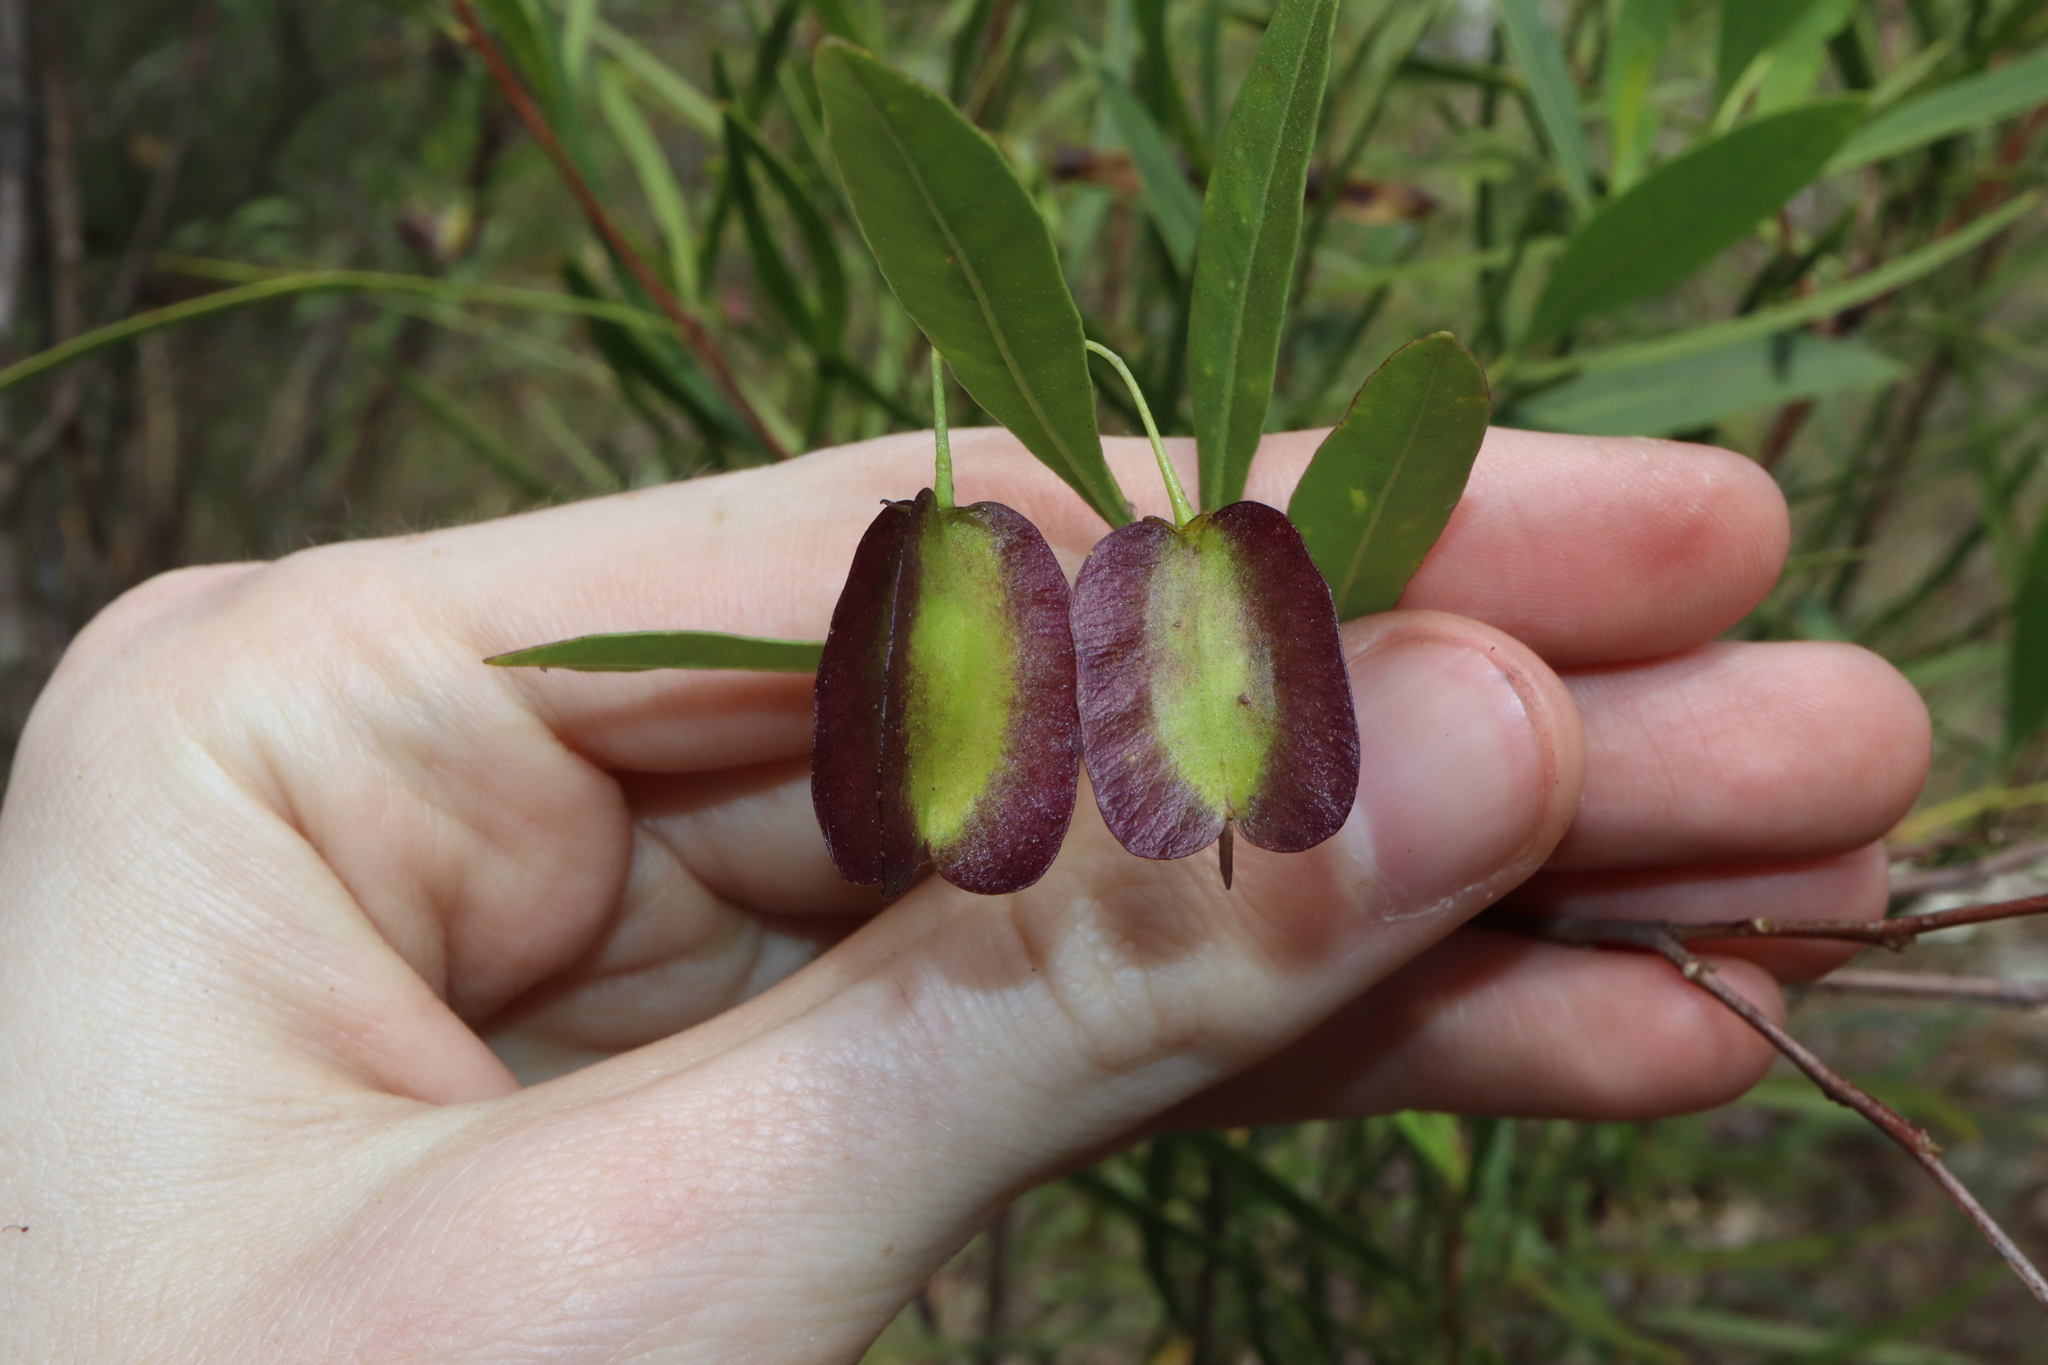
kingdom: Plantae
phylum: Tracheophyta
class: Magnoliopsida
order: Sapindales
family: Sapindaceae
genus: Dodonaea
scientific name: Dodonaea lanceolata
